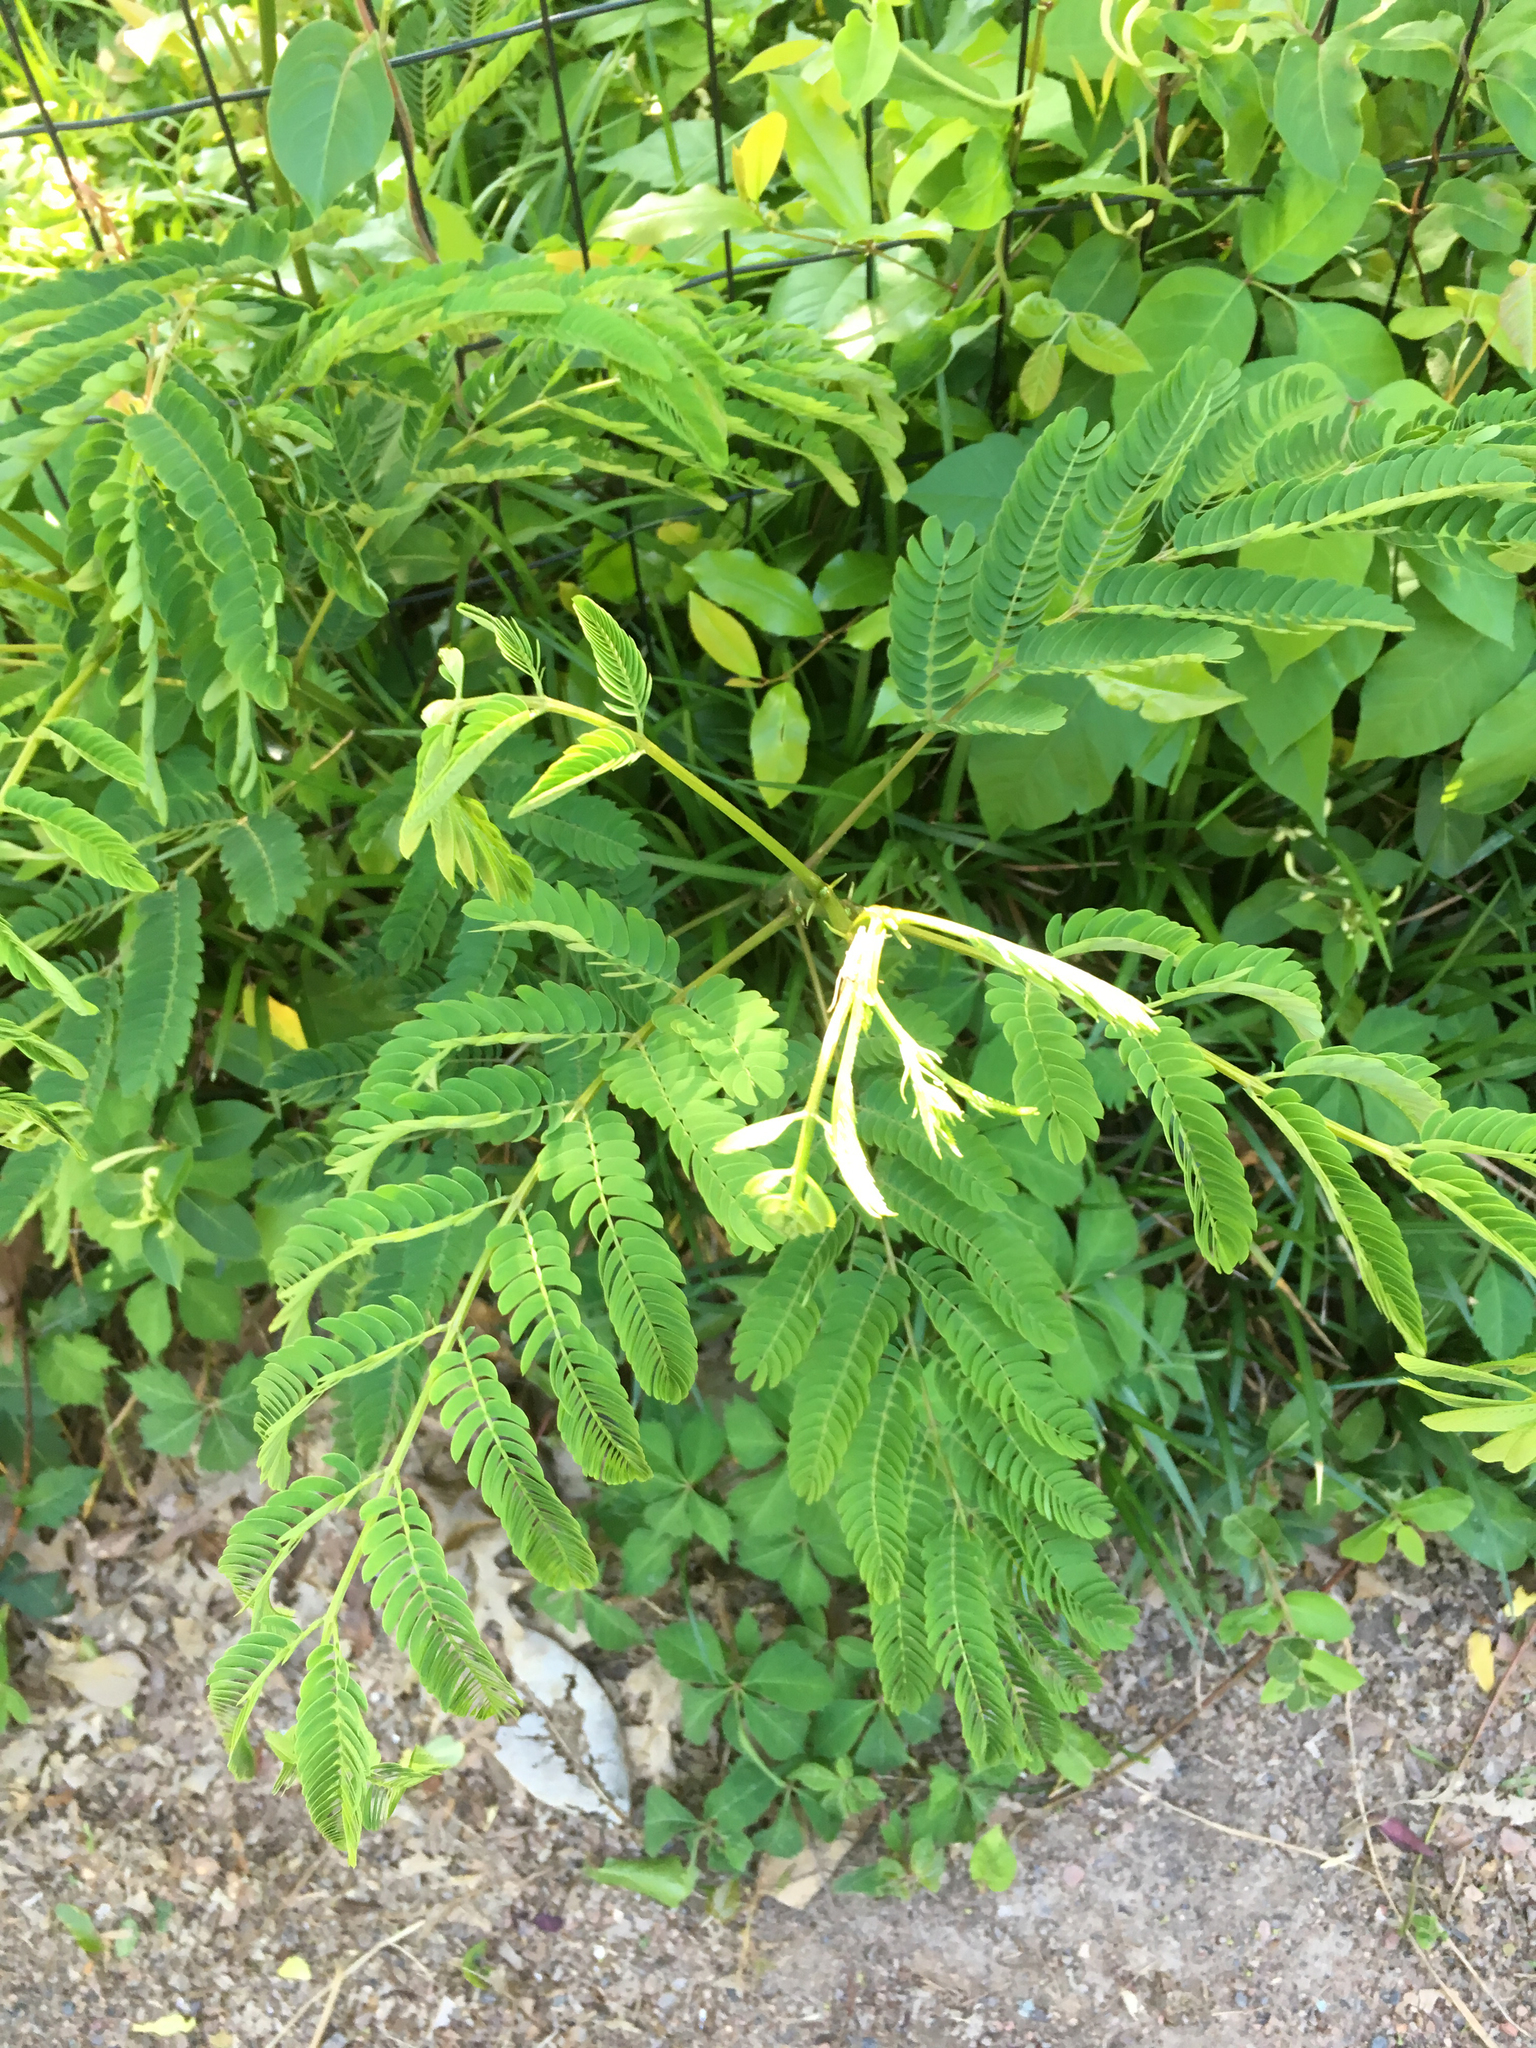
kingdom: Plantae
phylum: Tracheophyta
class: Magnoliopsida
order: Fabales
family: Fabaceae
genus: Albizia
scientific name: Albizia julibrissin
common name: Silktree
